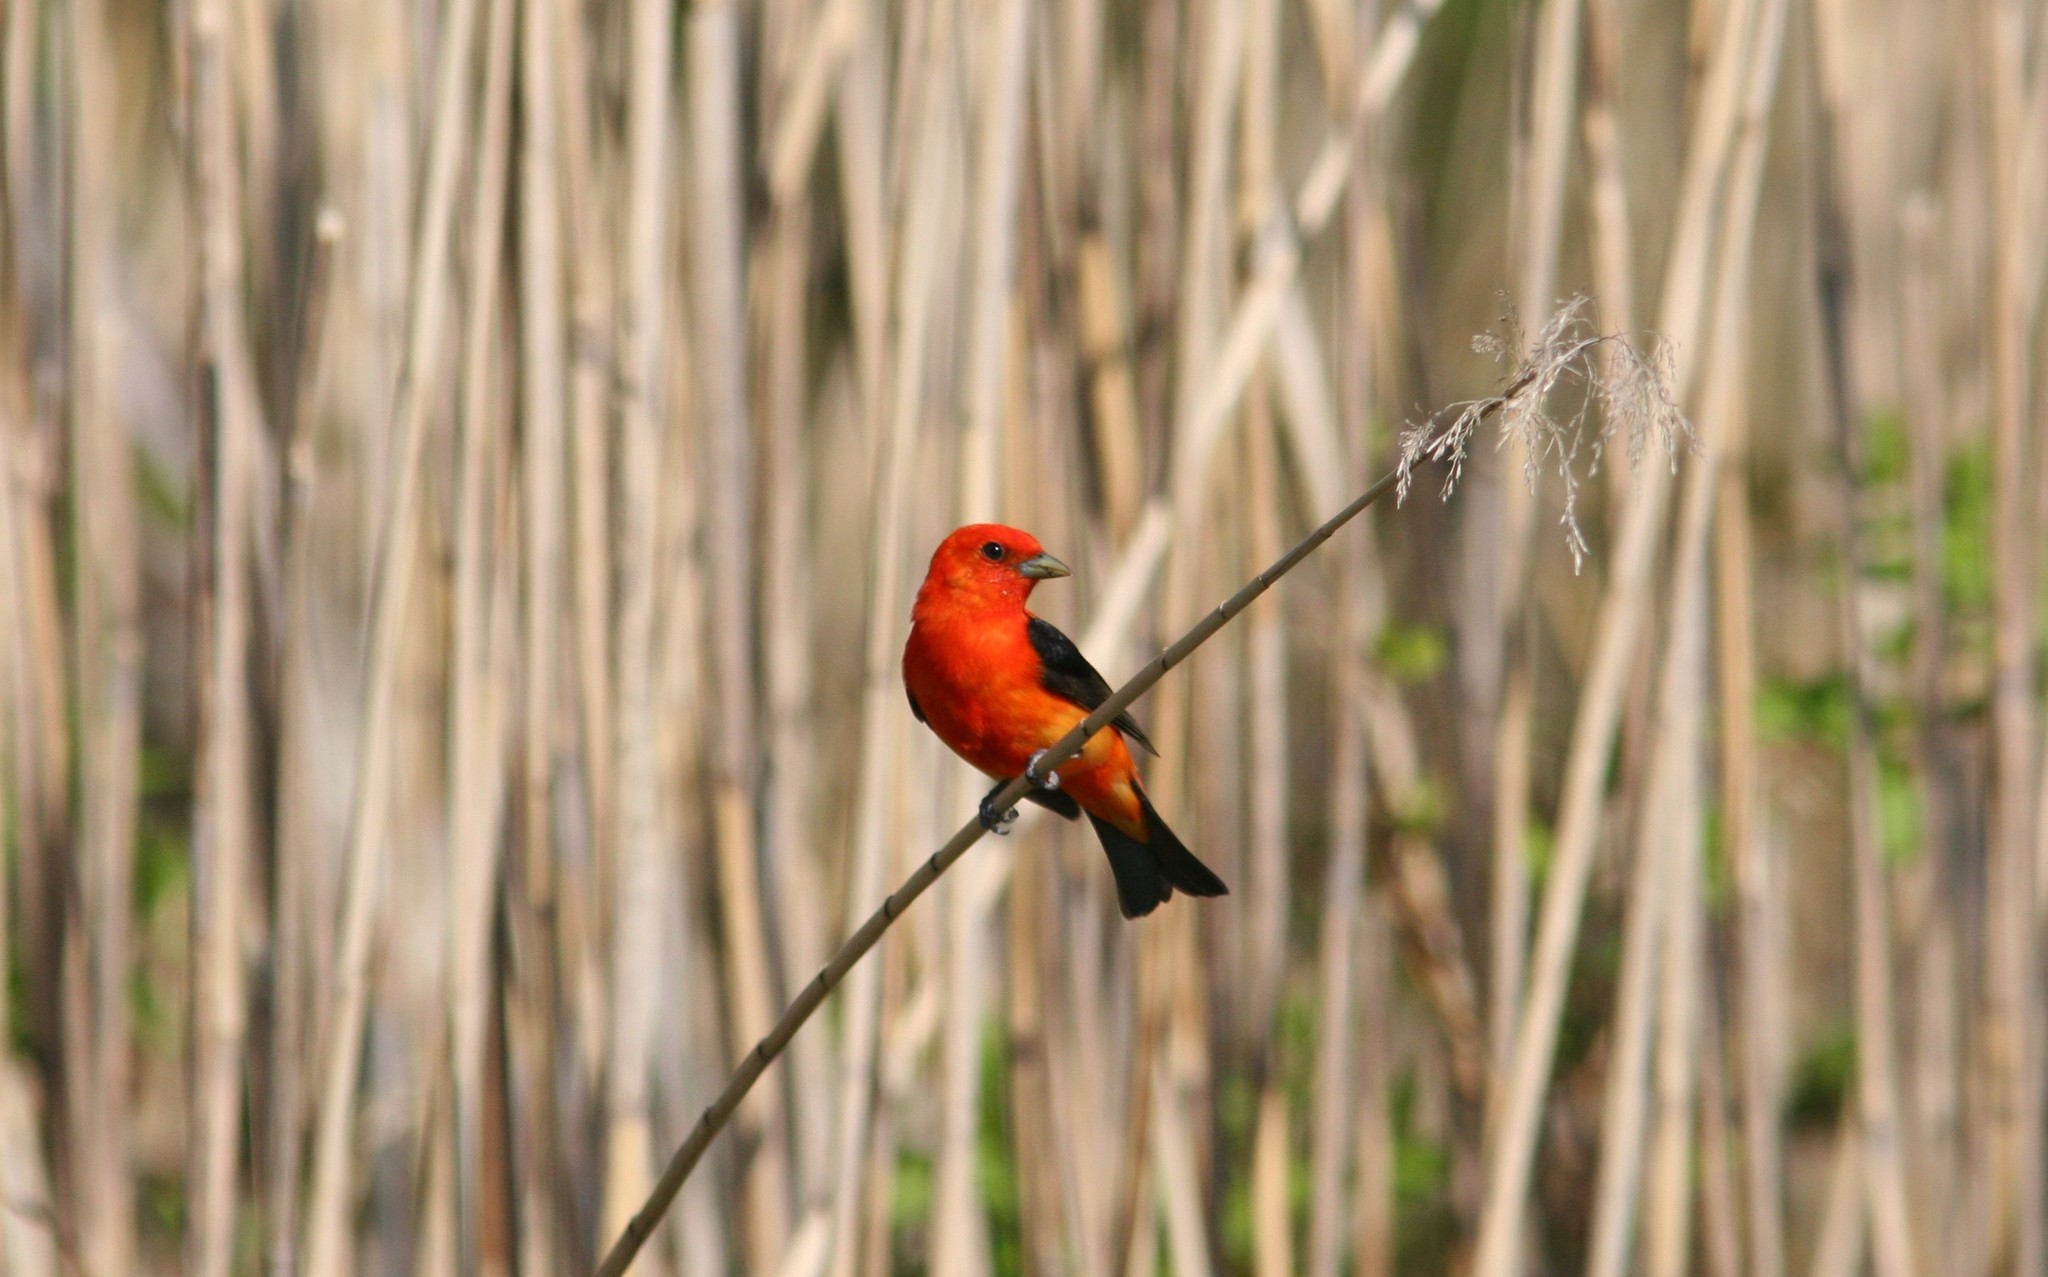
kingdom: Animalia
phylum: Chordata
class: Aves
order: Passeriformes
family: Cardinalidae
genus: Piranga
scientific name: Piranga olivacea
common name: Scarlet tanager
